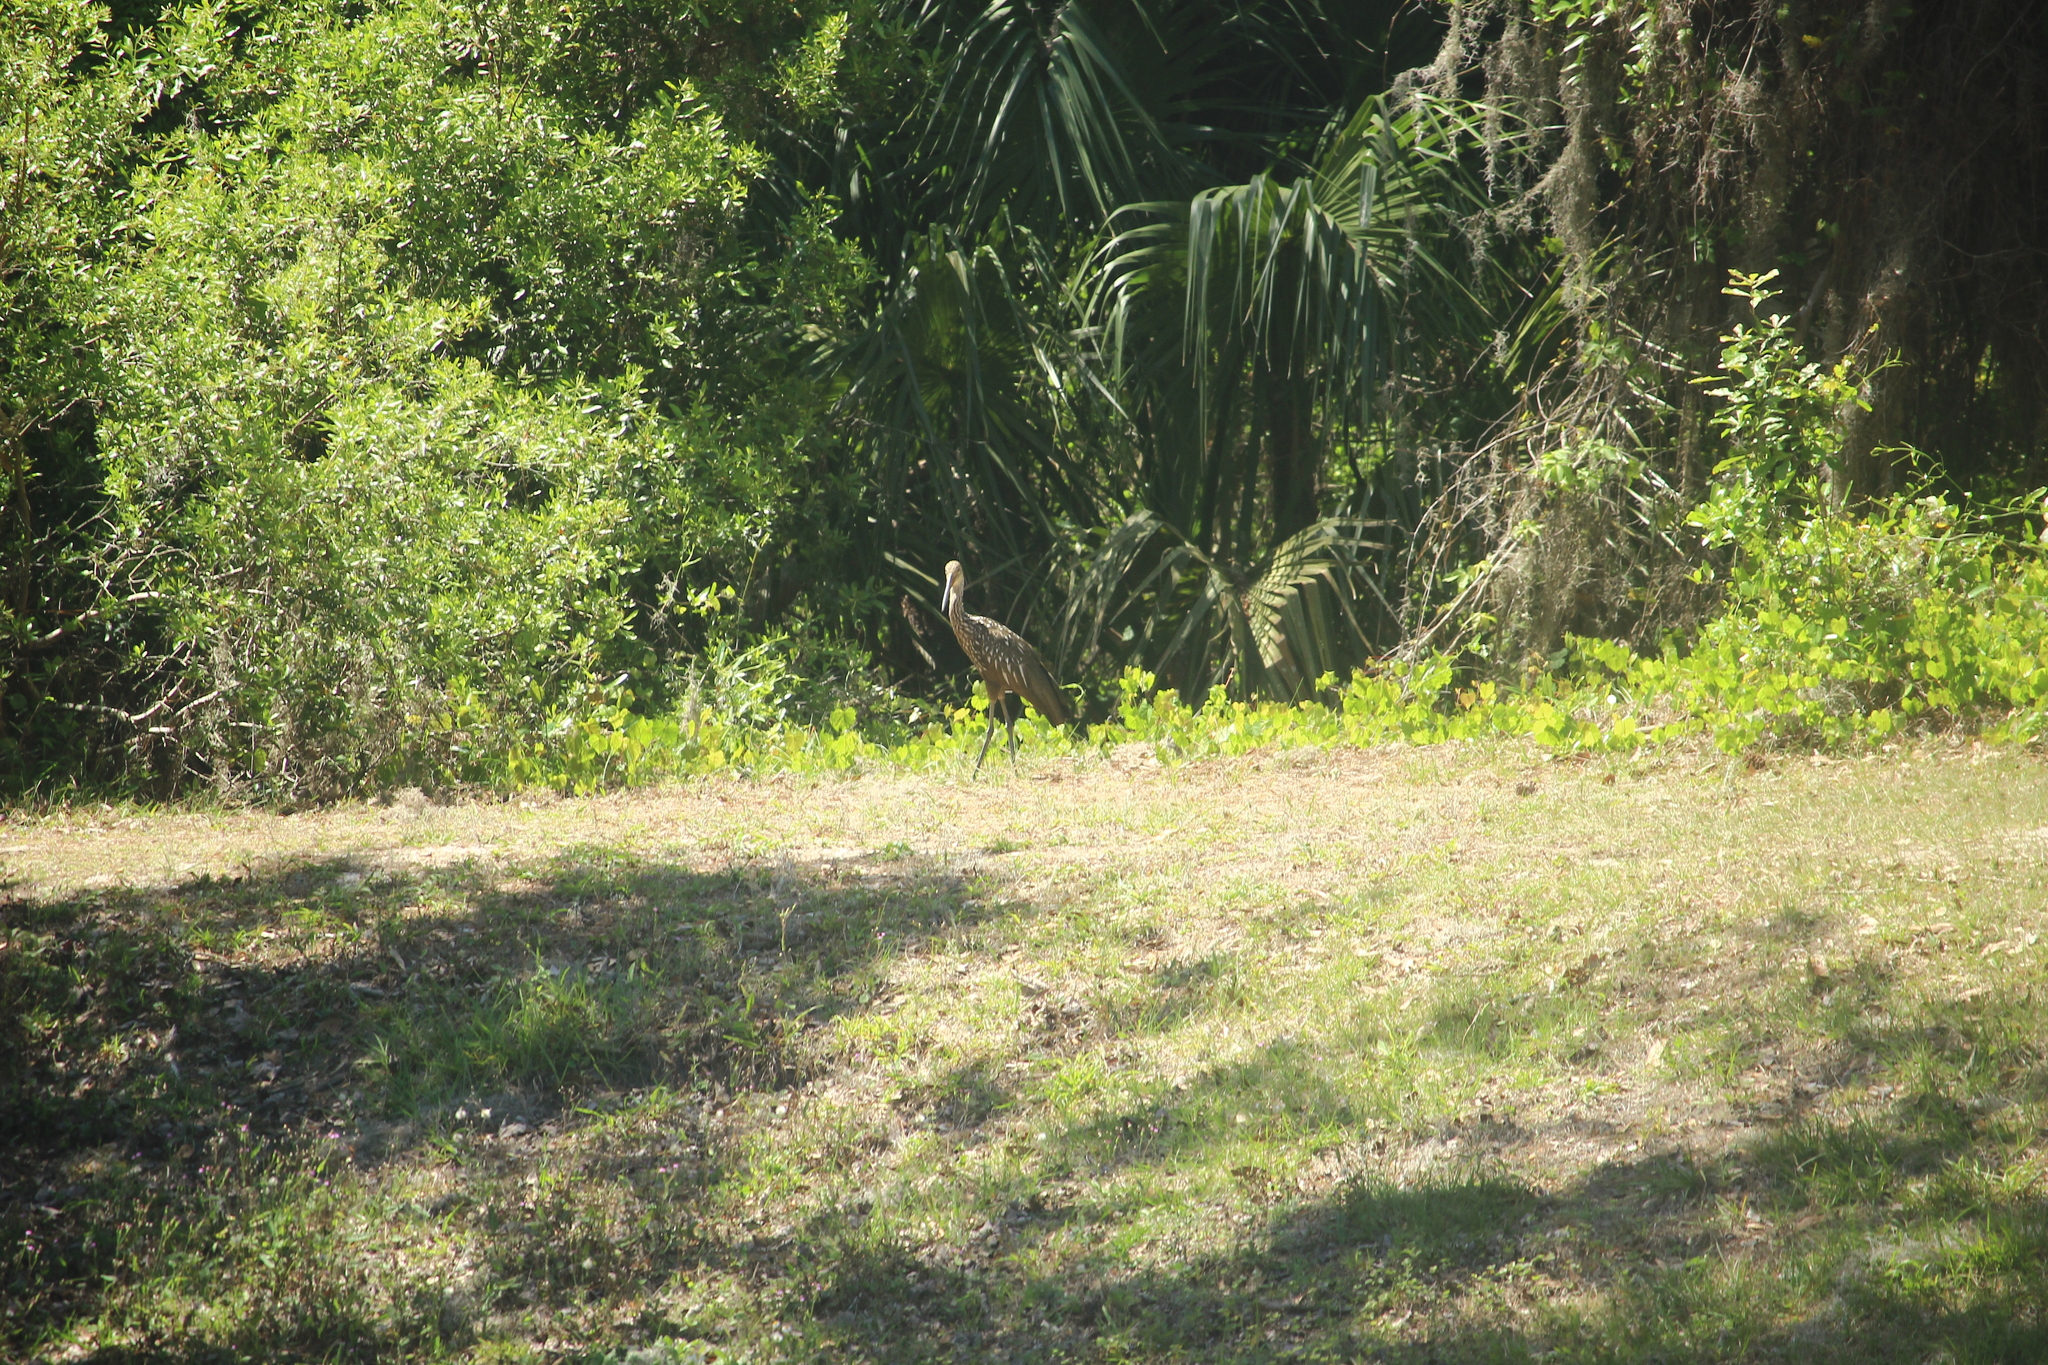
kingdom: Animalia
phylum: Chordata
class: Aves
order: Gruiformes
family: Aramidae
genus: Aramus
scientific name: Aramus guarauna
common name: Limpkin
